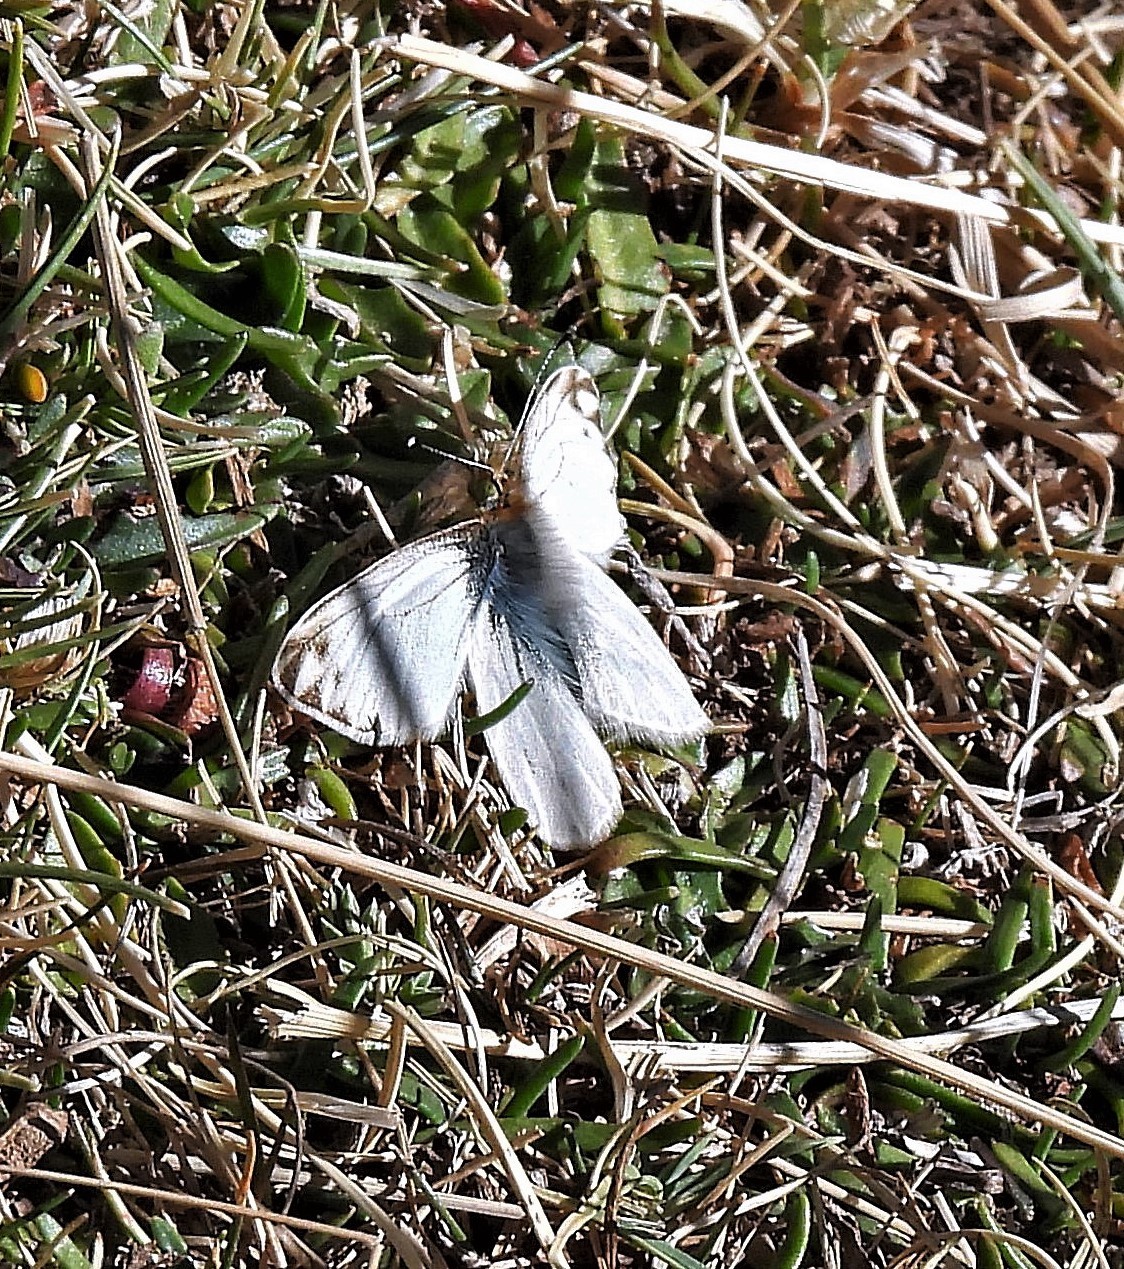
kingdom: Animalia
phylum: Arthropoda
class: Insecta
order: Lepidoptera
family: Pieridae
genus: Infraphulia
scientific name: Infraphulia ilyodes
